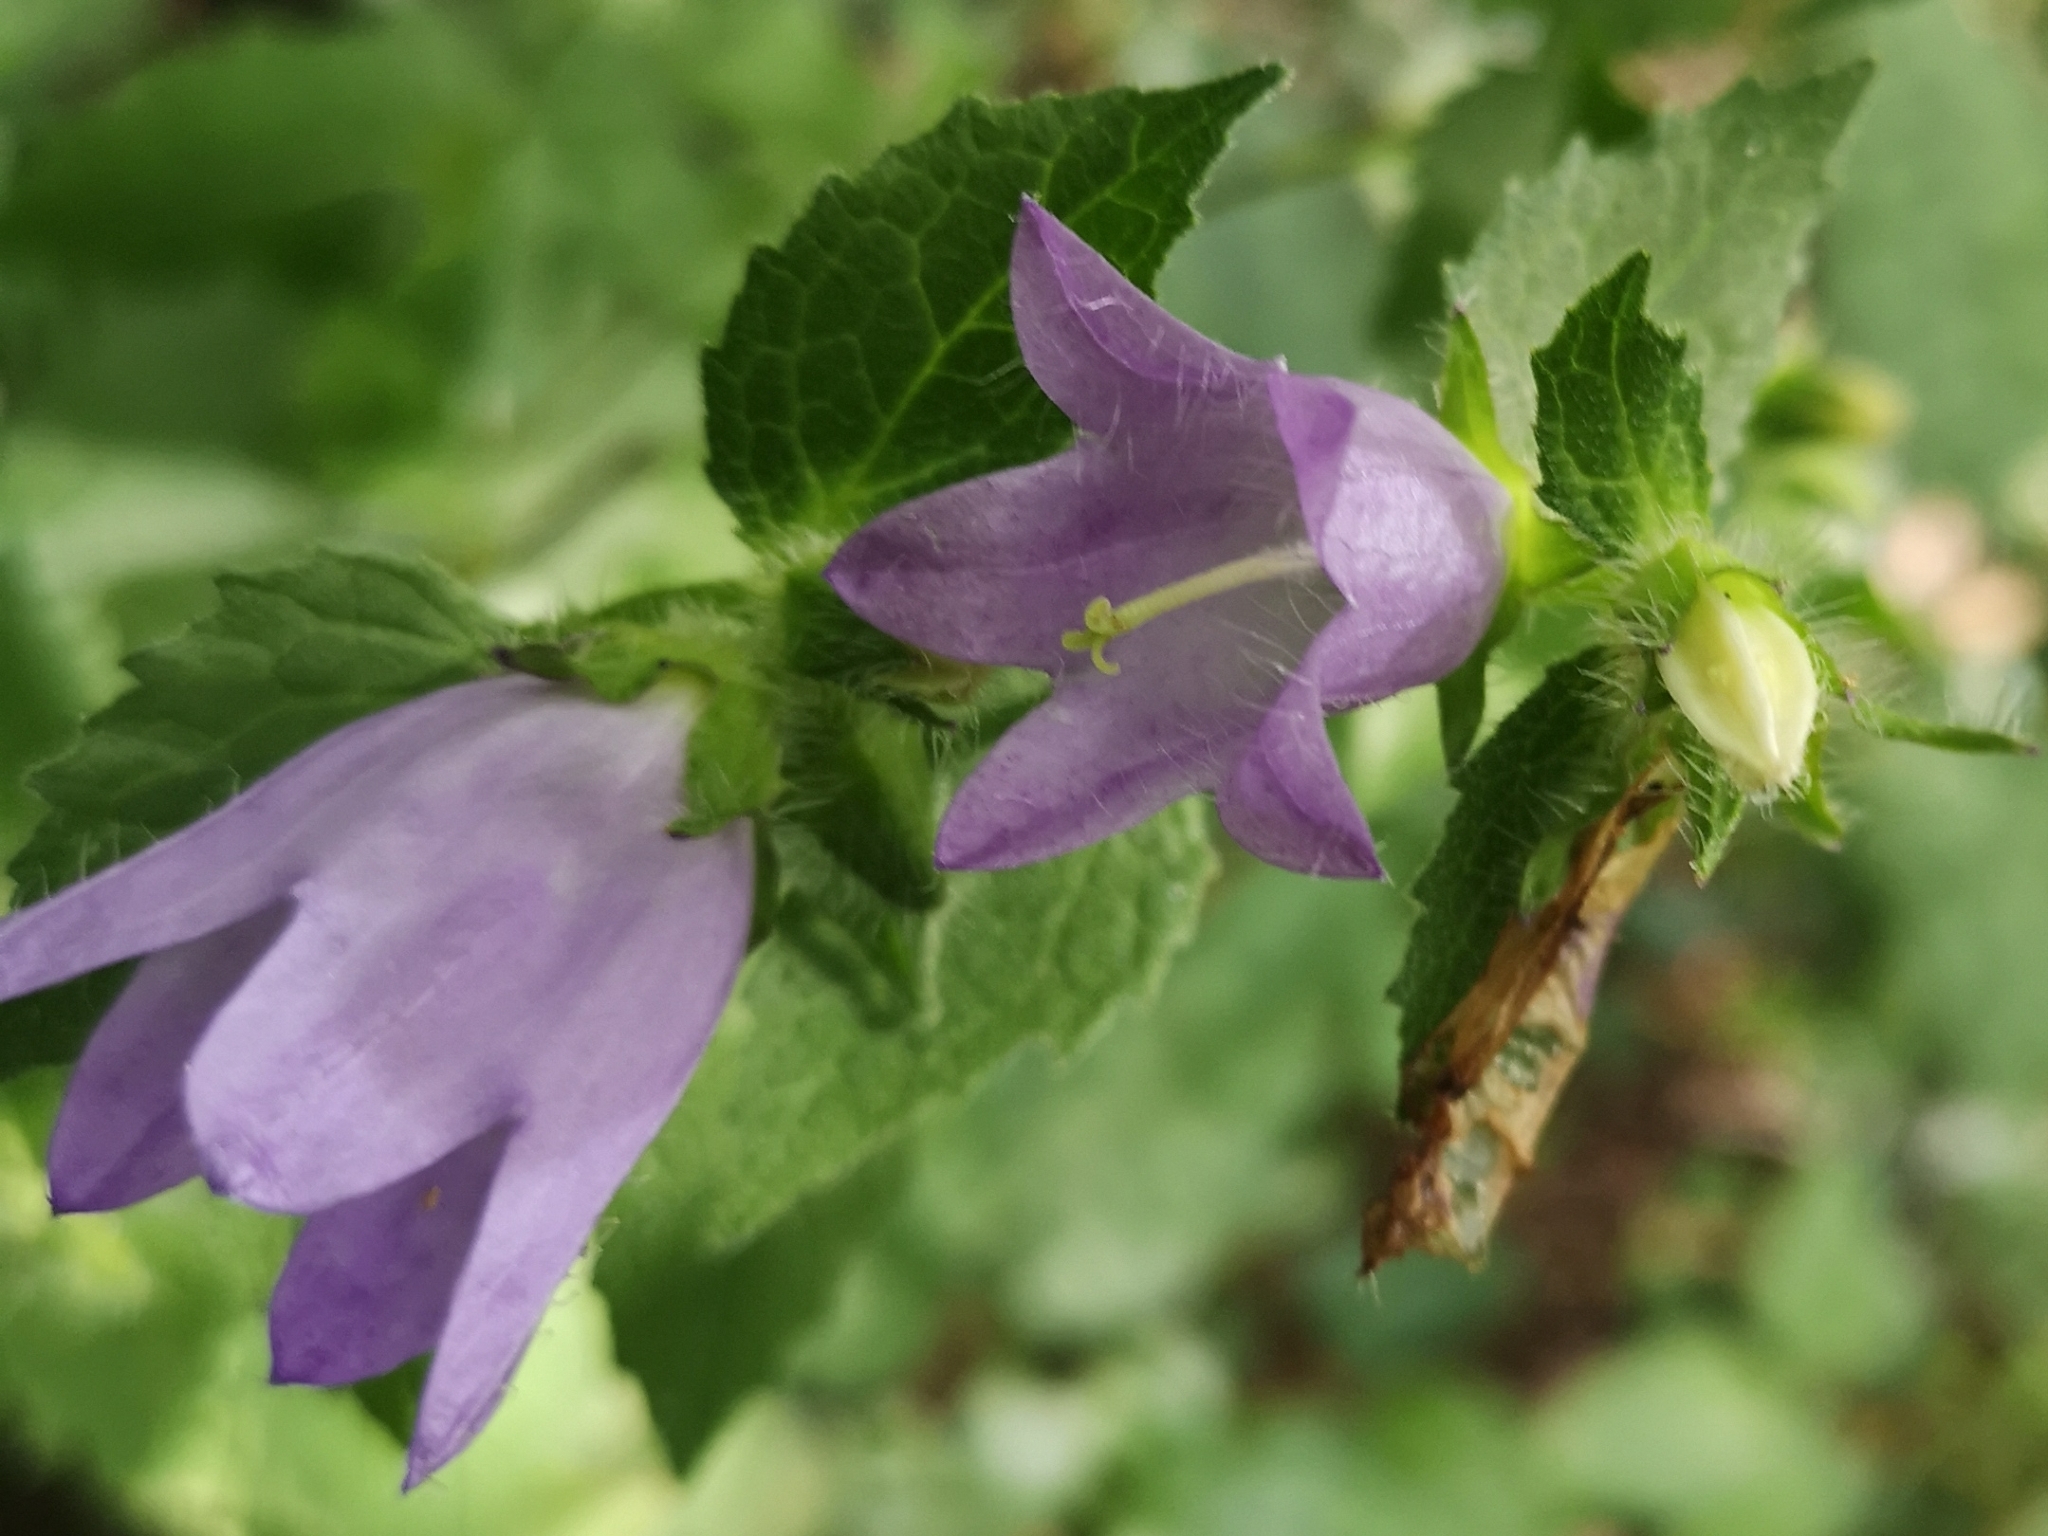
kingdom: Plantae
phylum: Tracheophyta
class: Magnoliopsida
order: Asterales
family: Campanulaceae
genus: Campanula
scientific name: Campanula trachelium
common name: Nettle-leaved bellflower
